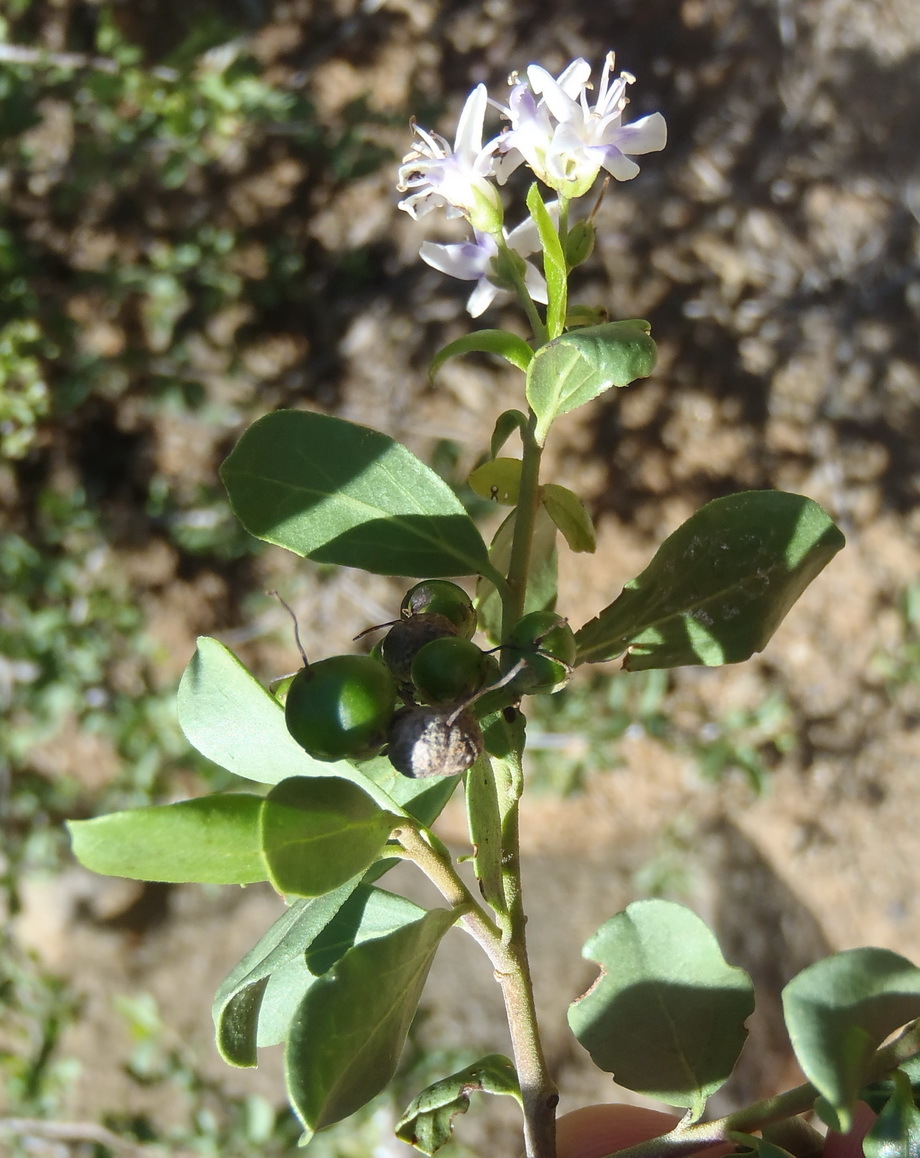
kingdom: Plantae
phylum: Tracheophyta
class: Magnoliopsida
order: Boraginales
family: Ehretiaceae
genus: Ehretia
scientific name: Ehretia rigida
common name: Cape lilac
